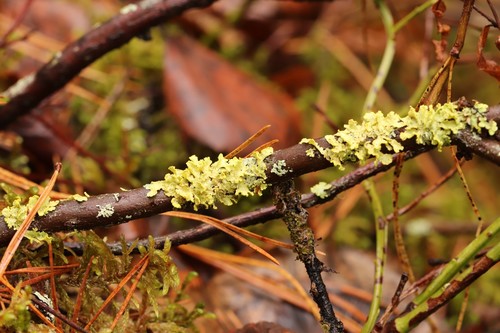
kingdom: Fungi
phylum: Ascomycota
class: Lecanoromycetes
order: Lecanorales
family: Parmeliaceae
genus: Vulpicida
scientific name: Vulpicida pinastri
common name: Powdered sunshine lichen
